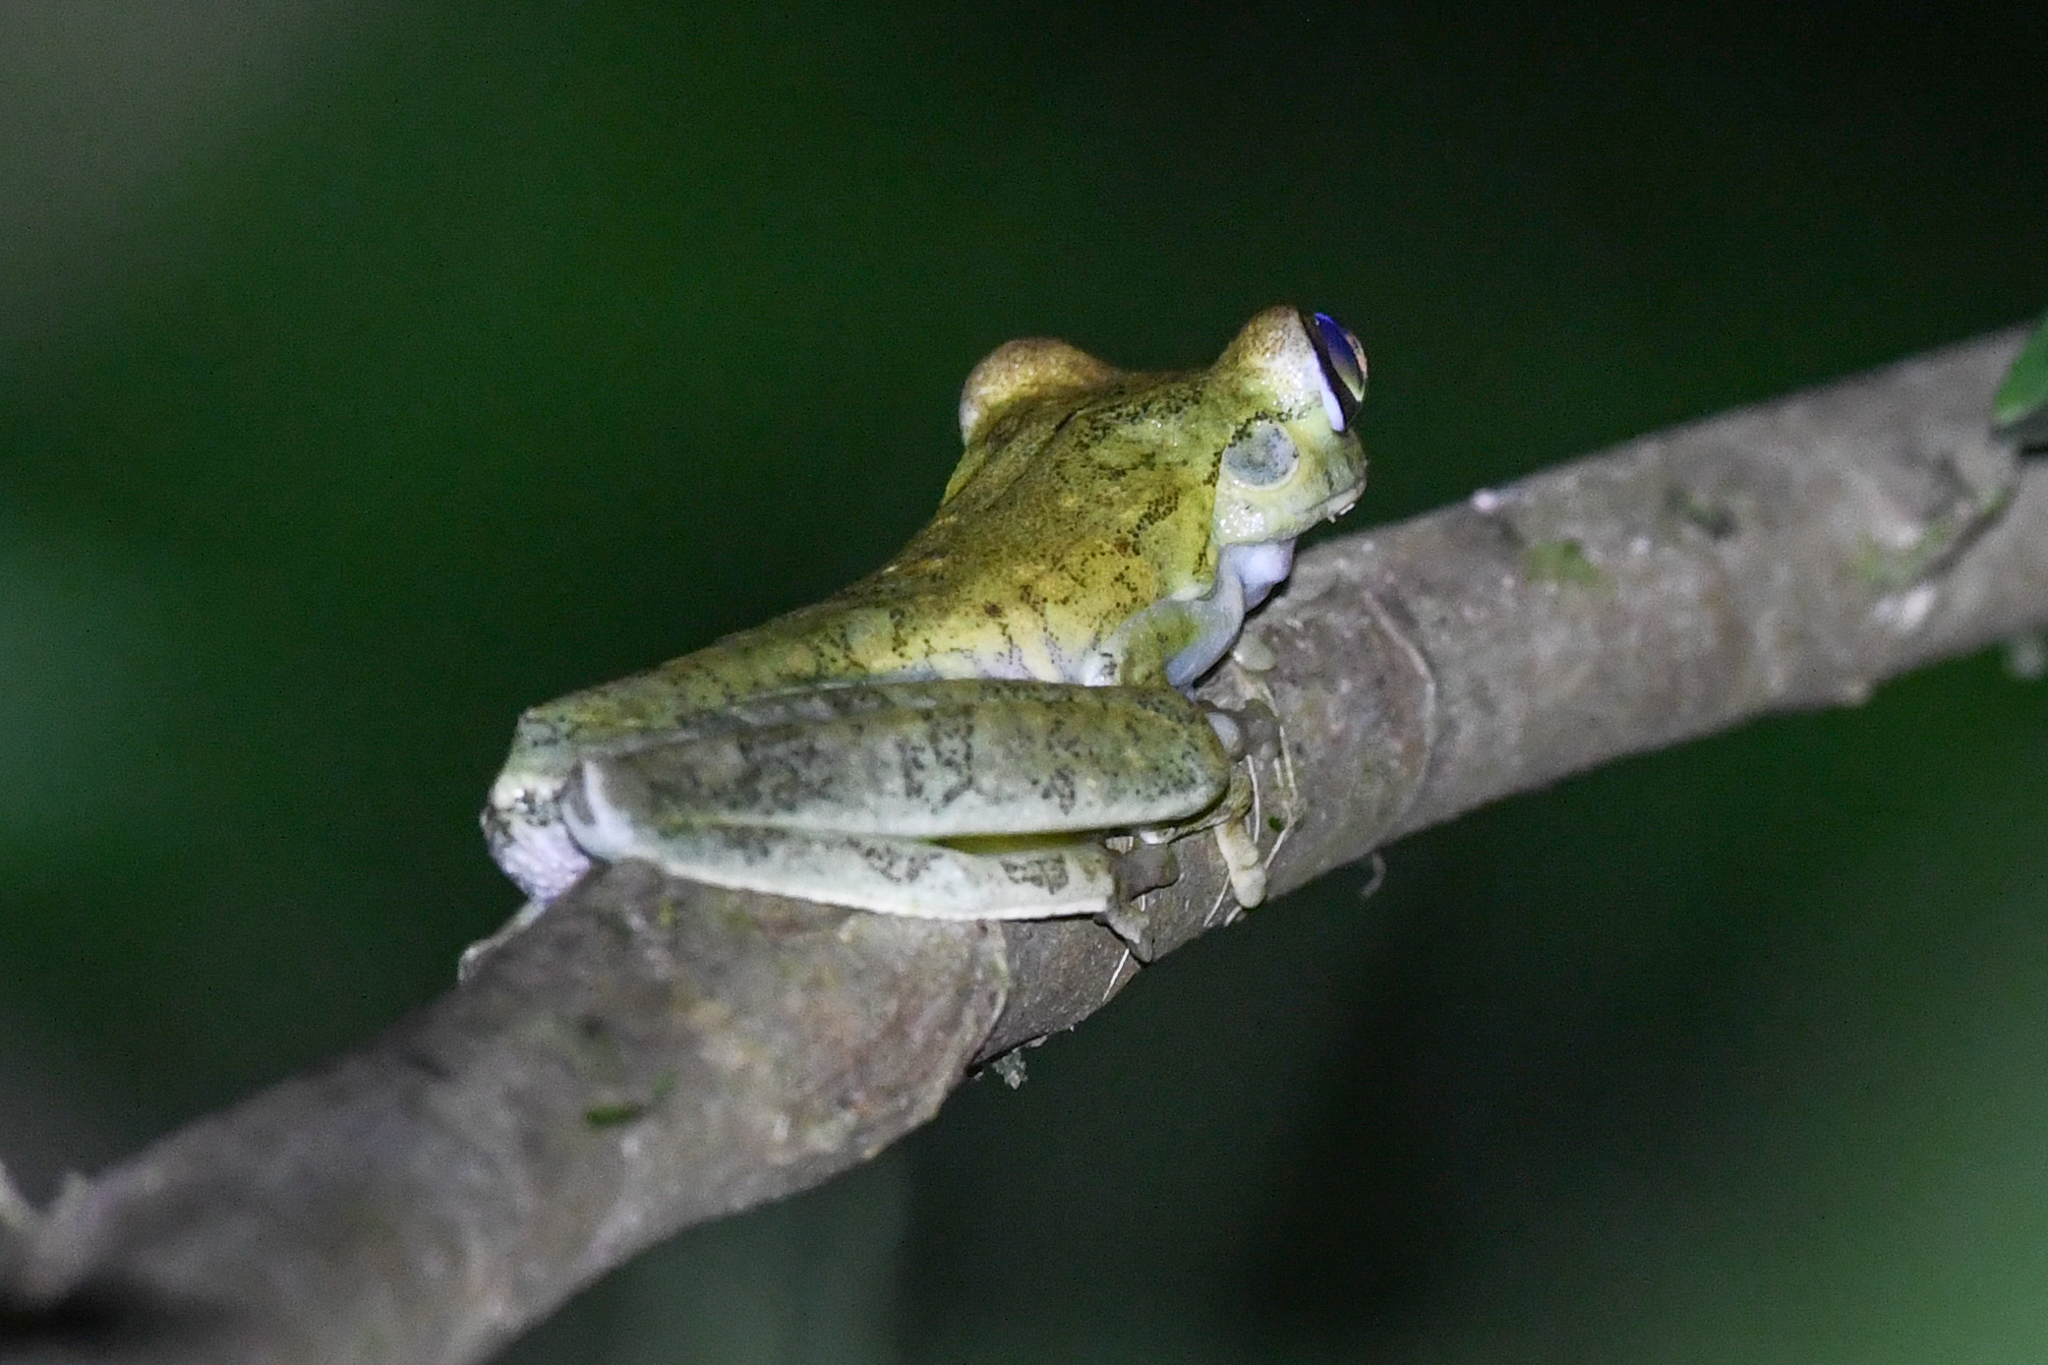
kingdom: Animalia
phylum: Chordata
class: Amphibia
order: Anura
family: Hylidae
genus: Boana
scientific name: Boana rosenbergi
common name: Rosenberg´s gladiator treefrog
